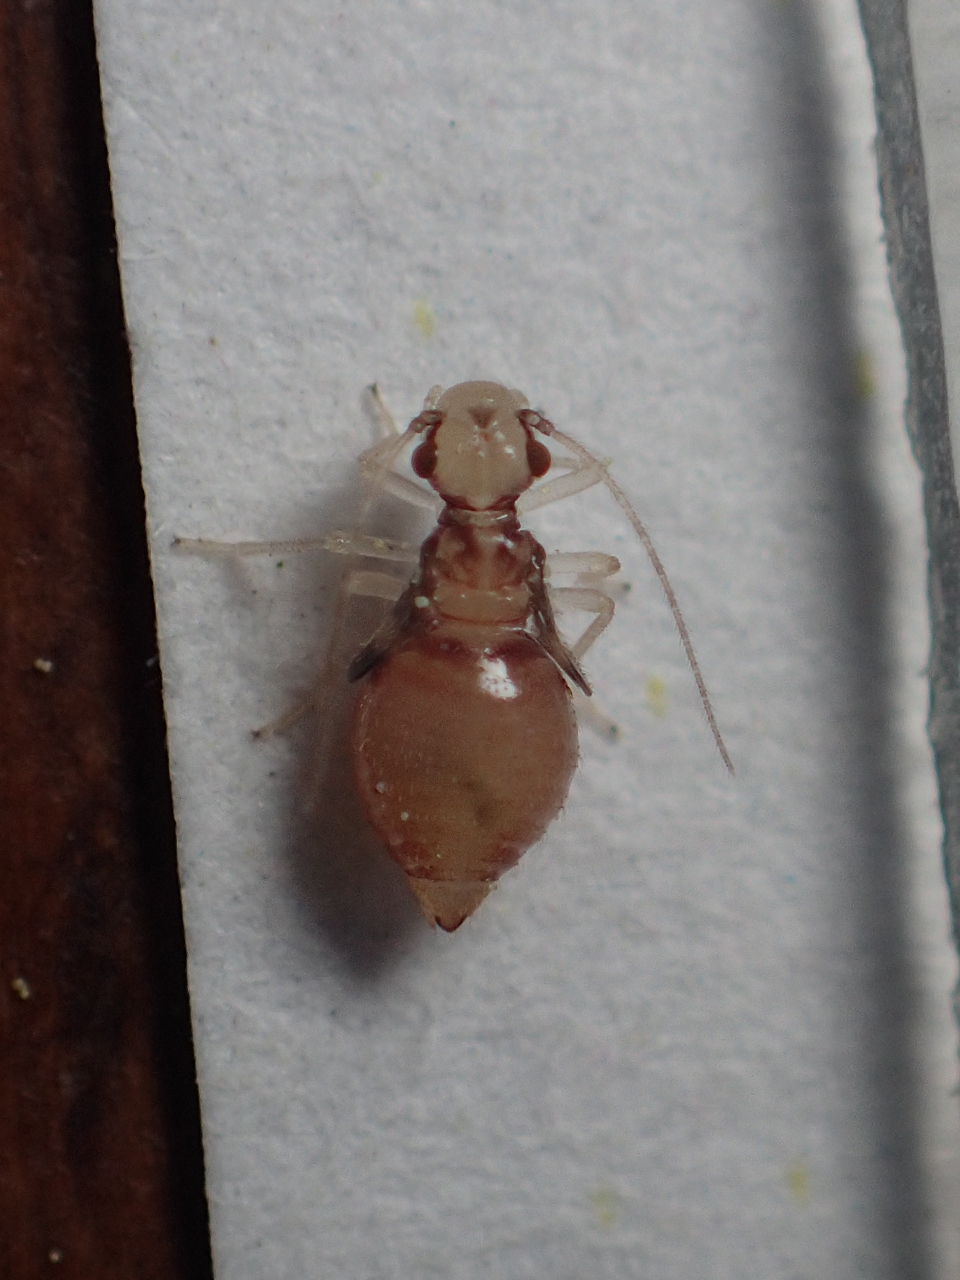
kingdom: Animalia
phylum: Arthropoda
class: Insecta
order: Psocodea
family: Amphipsocidae
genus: Polypsocus
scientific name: Polypsocus corruptus
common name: Corrupt barklouse
